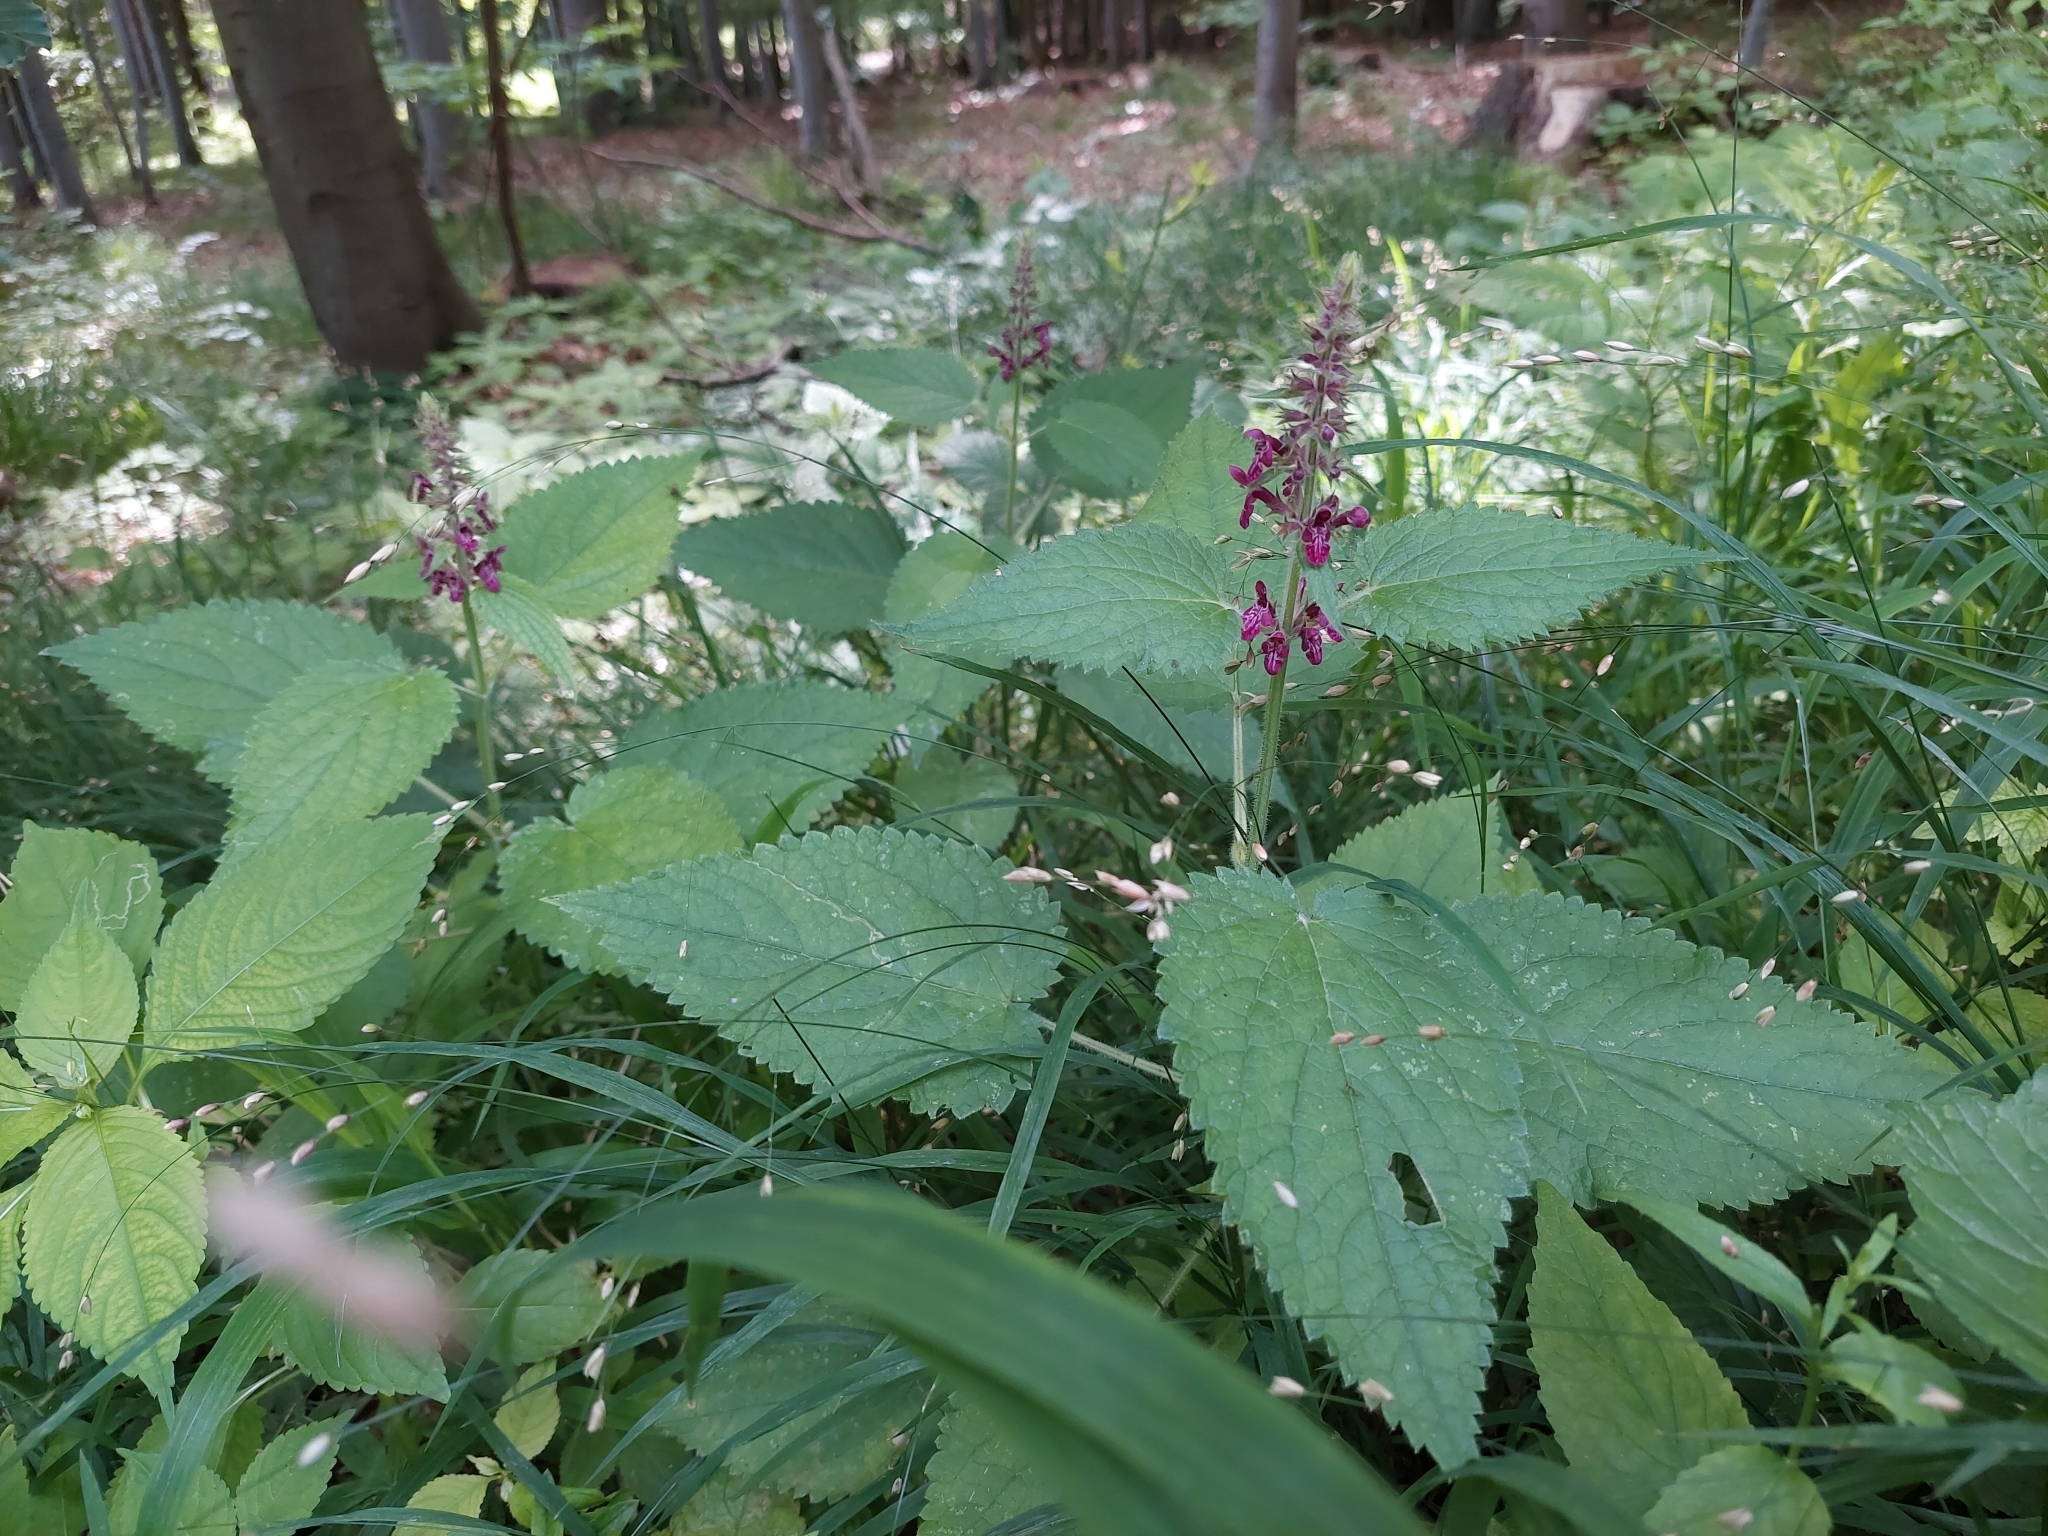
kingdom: Plantae
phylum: Tracheophyta
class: Magnoliopsida
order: Lamiales
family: Lamiaceae
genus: Stachys
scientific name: Stachys sylvatica
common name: Hedge woundwort
